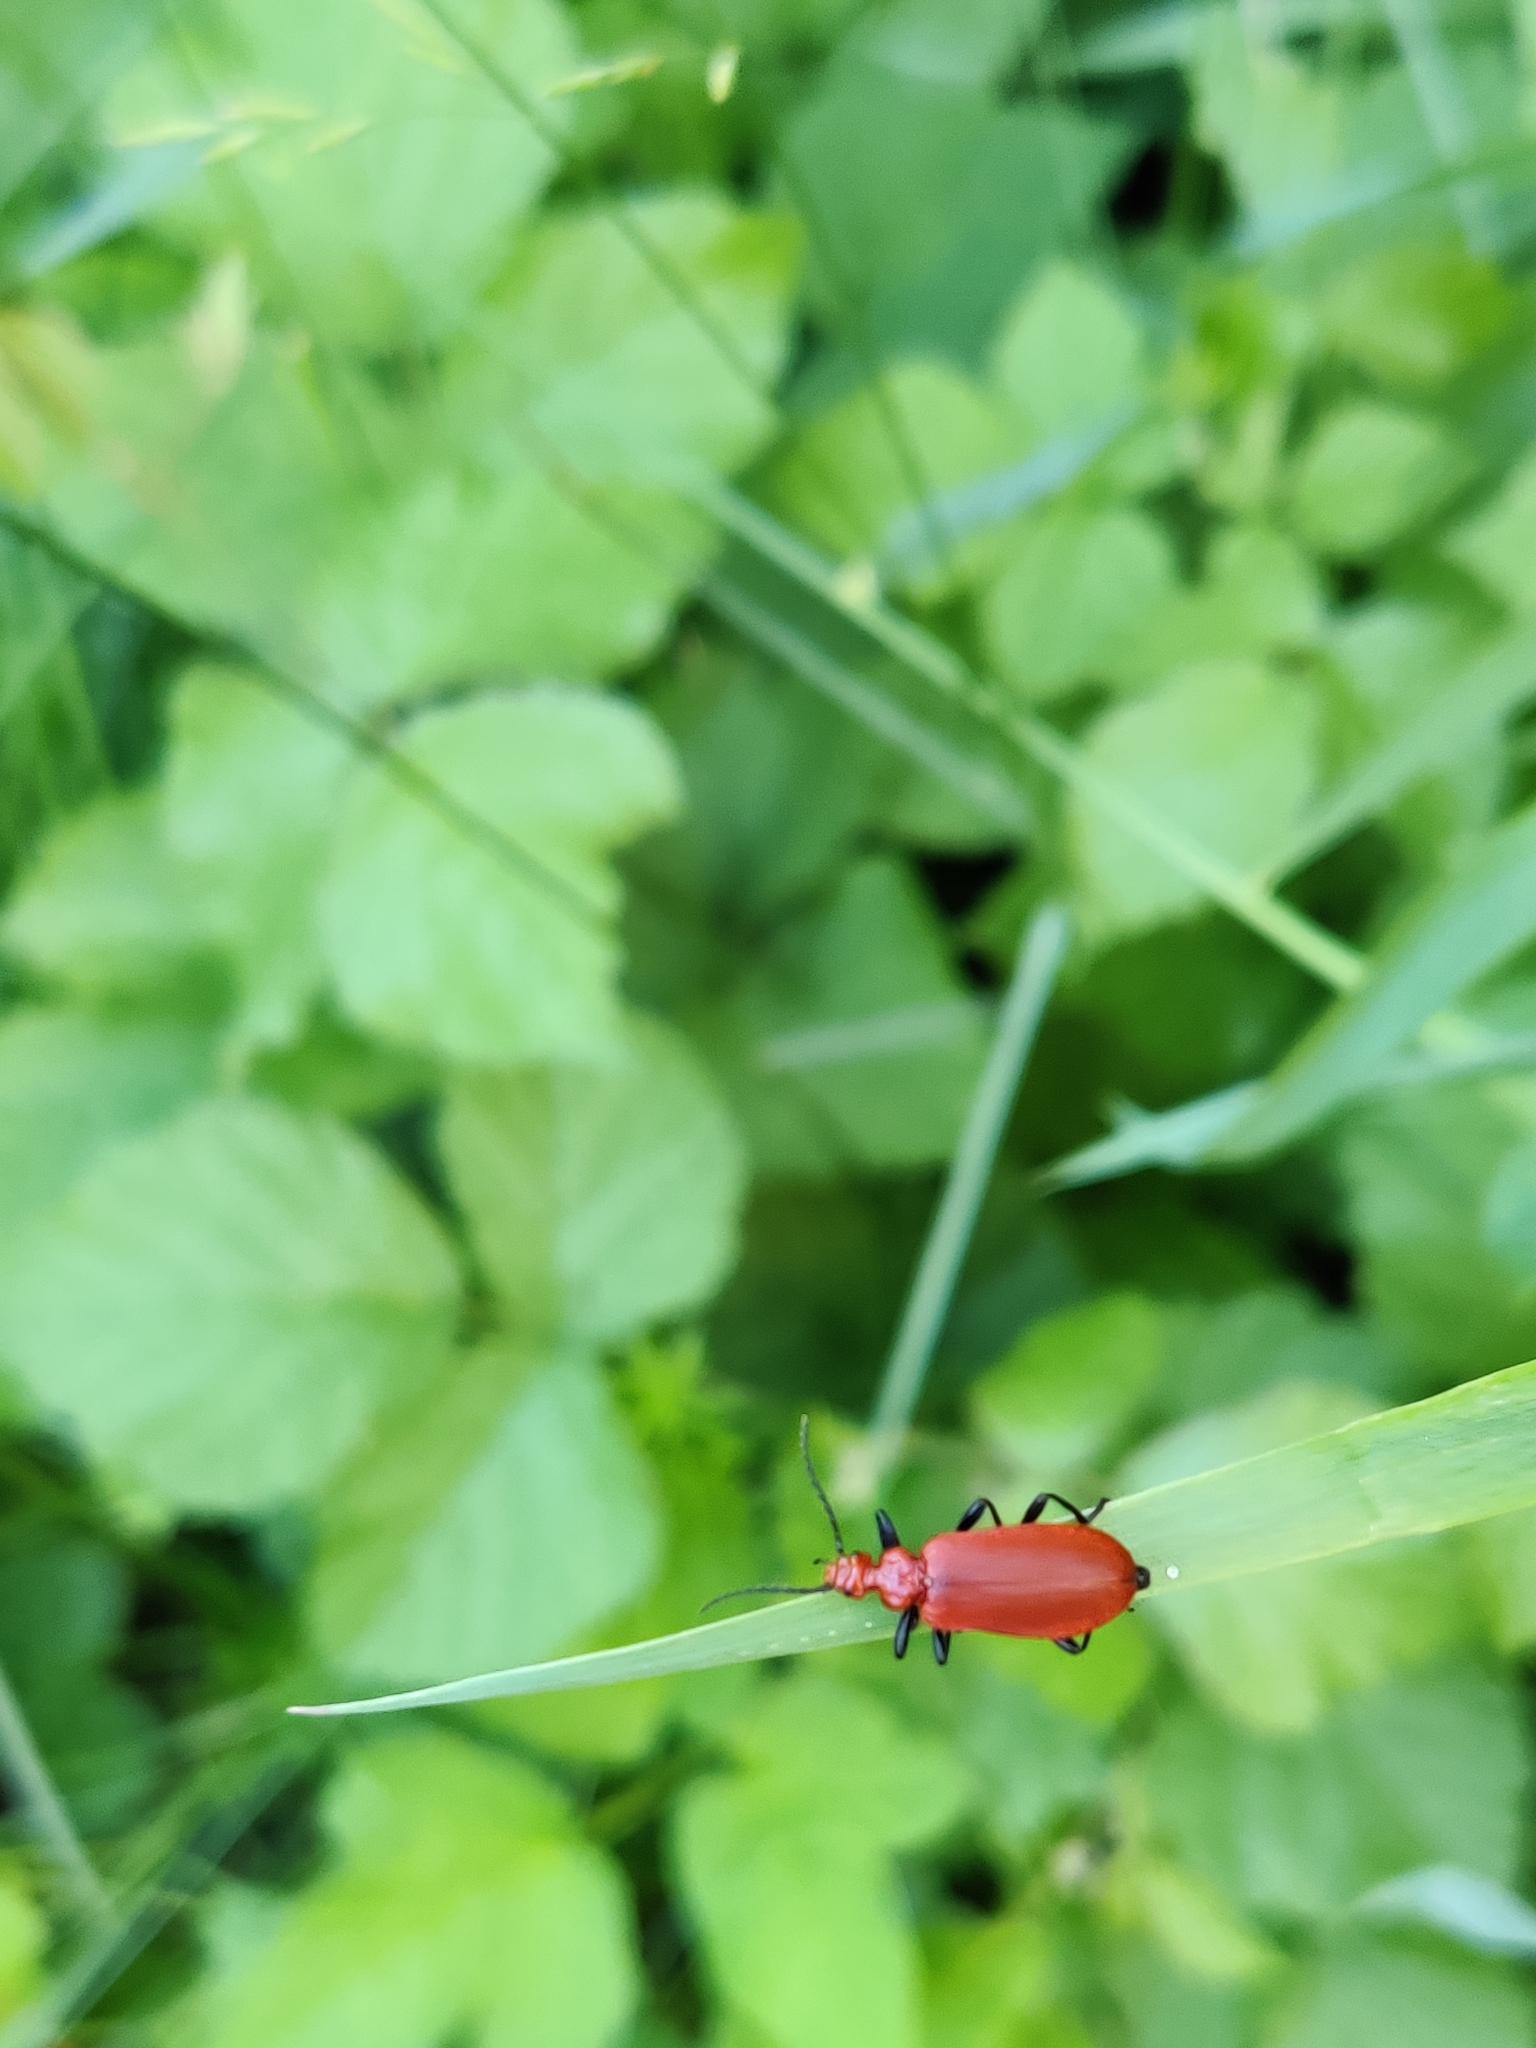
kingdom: Animalia
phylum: Arthropoda
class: Insecta
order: Coleoptera
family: Pyrochroidae
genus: Pyrochroa
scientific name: Pyrochroa serraticornis
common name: Red-headed cardinal beetle
